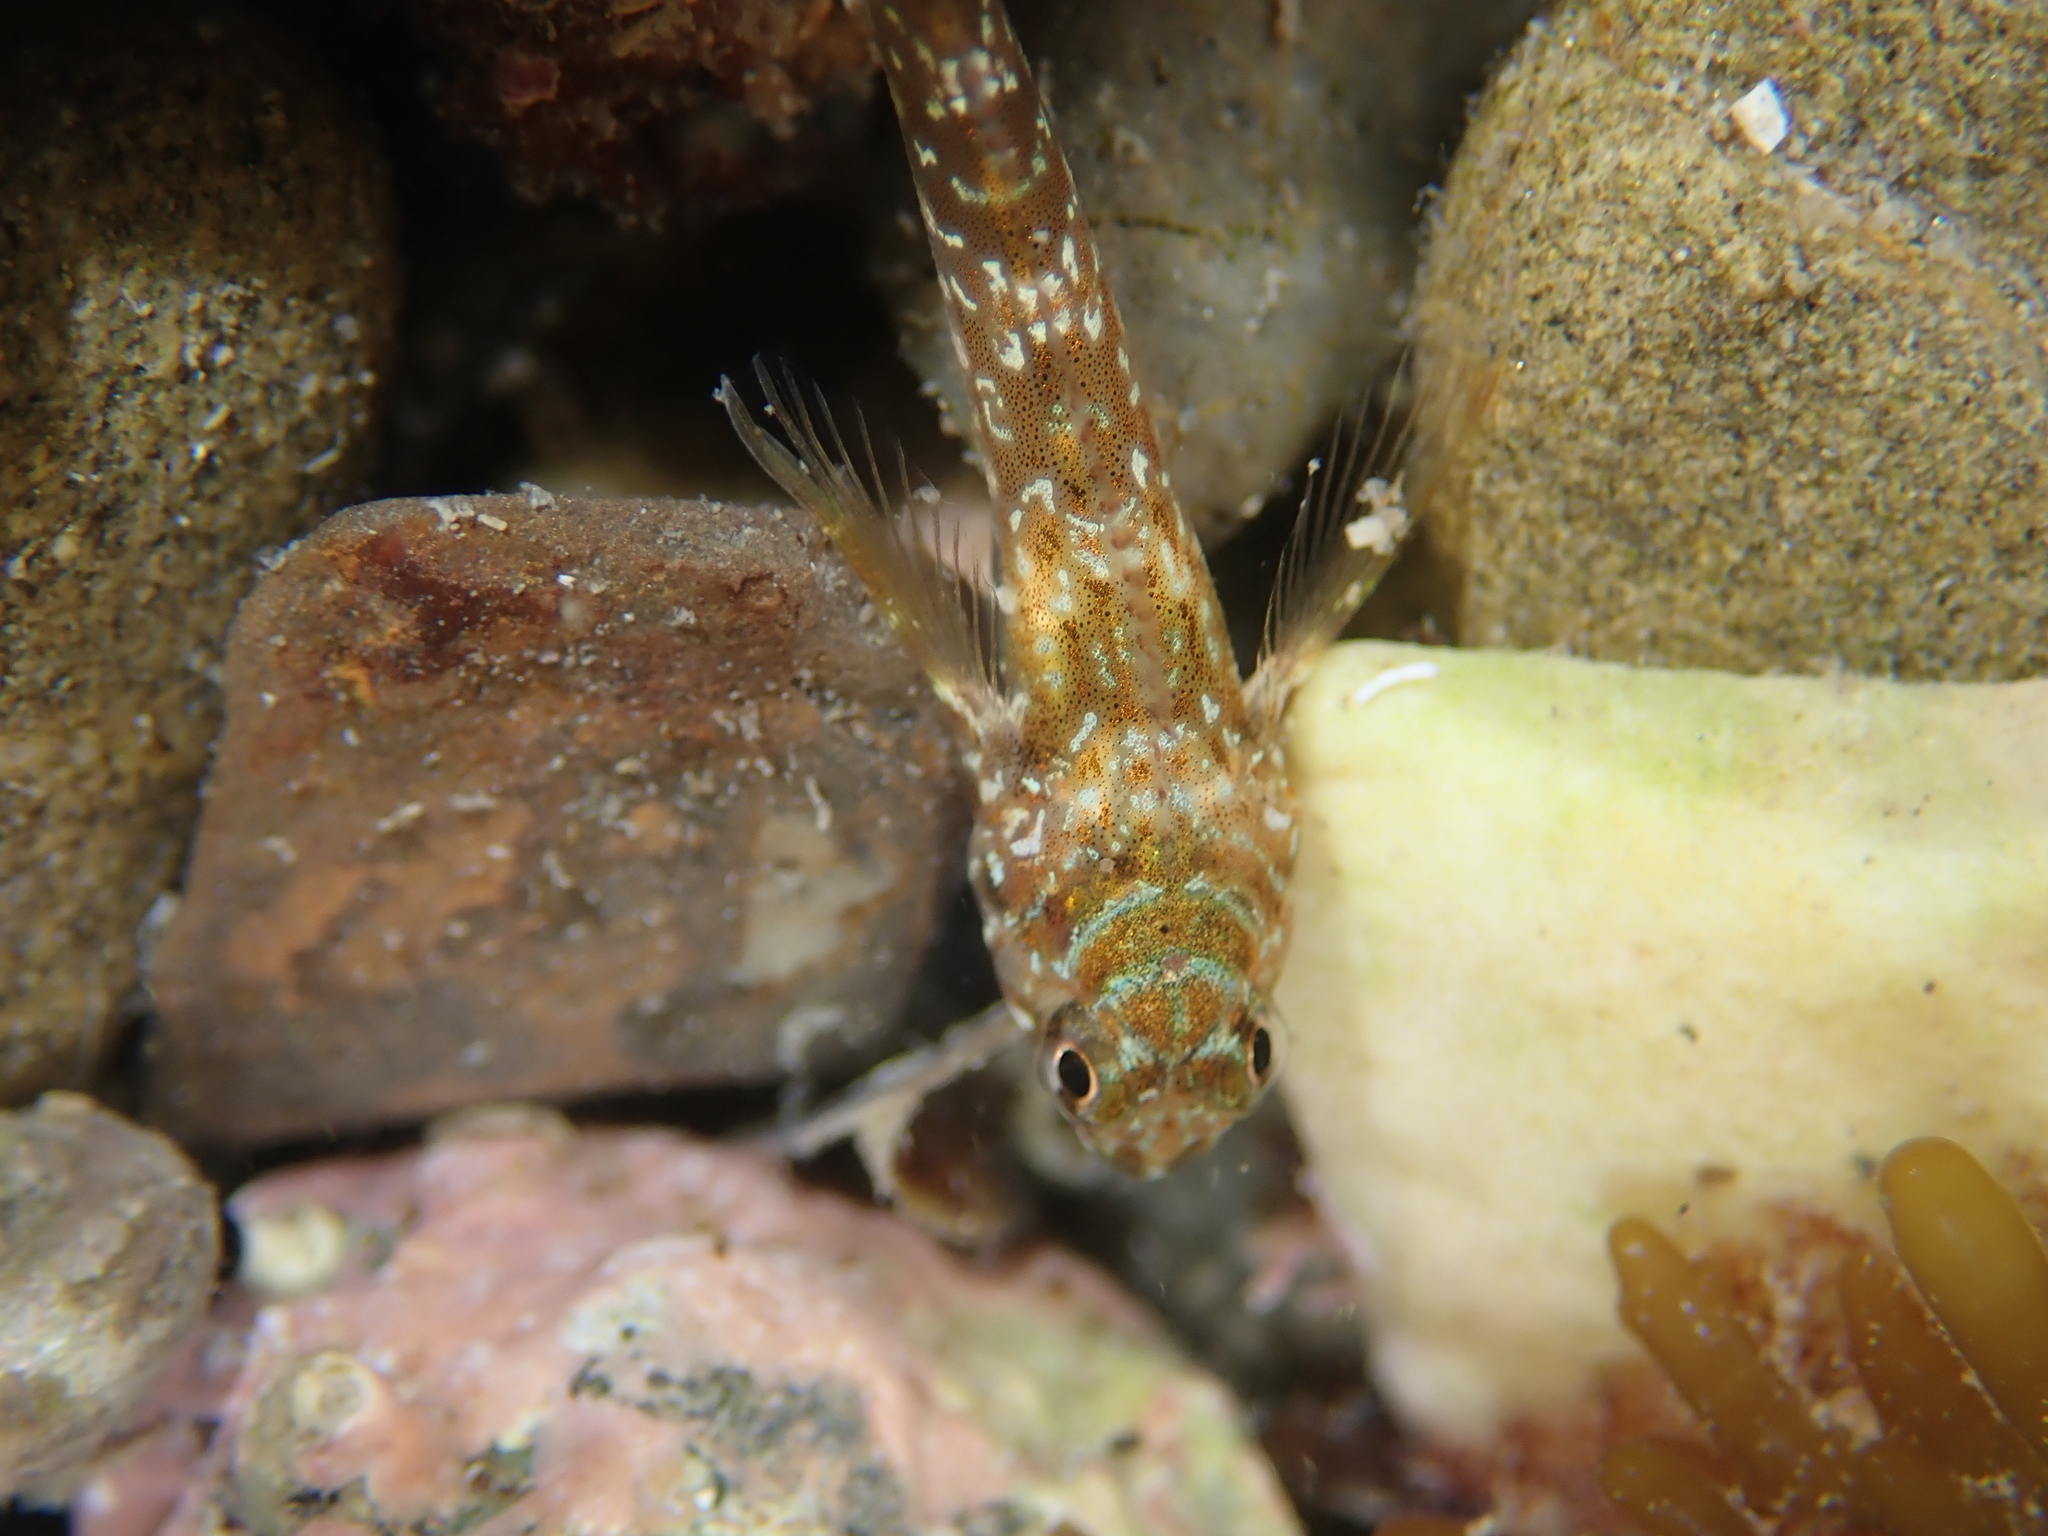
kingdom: Animalia
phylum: Chordata
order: Perciformes
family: Tripterygiidae
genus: Bellapiscis
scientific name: Bellapiscis lesleyae
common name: Mottled twister
